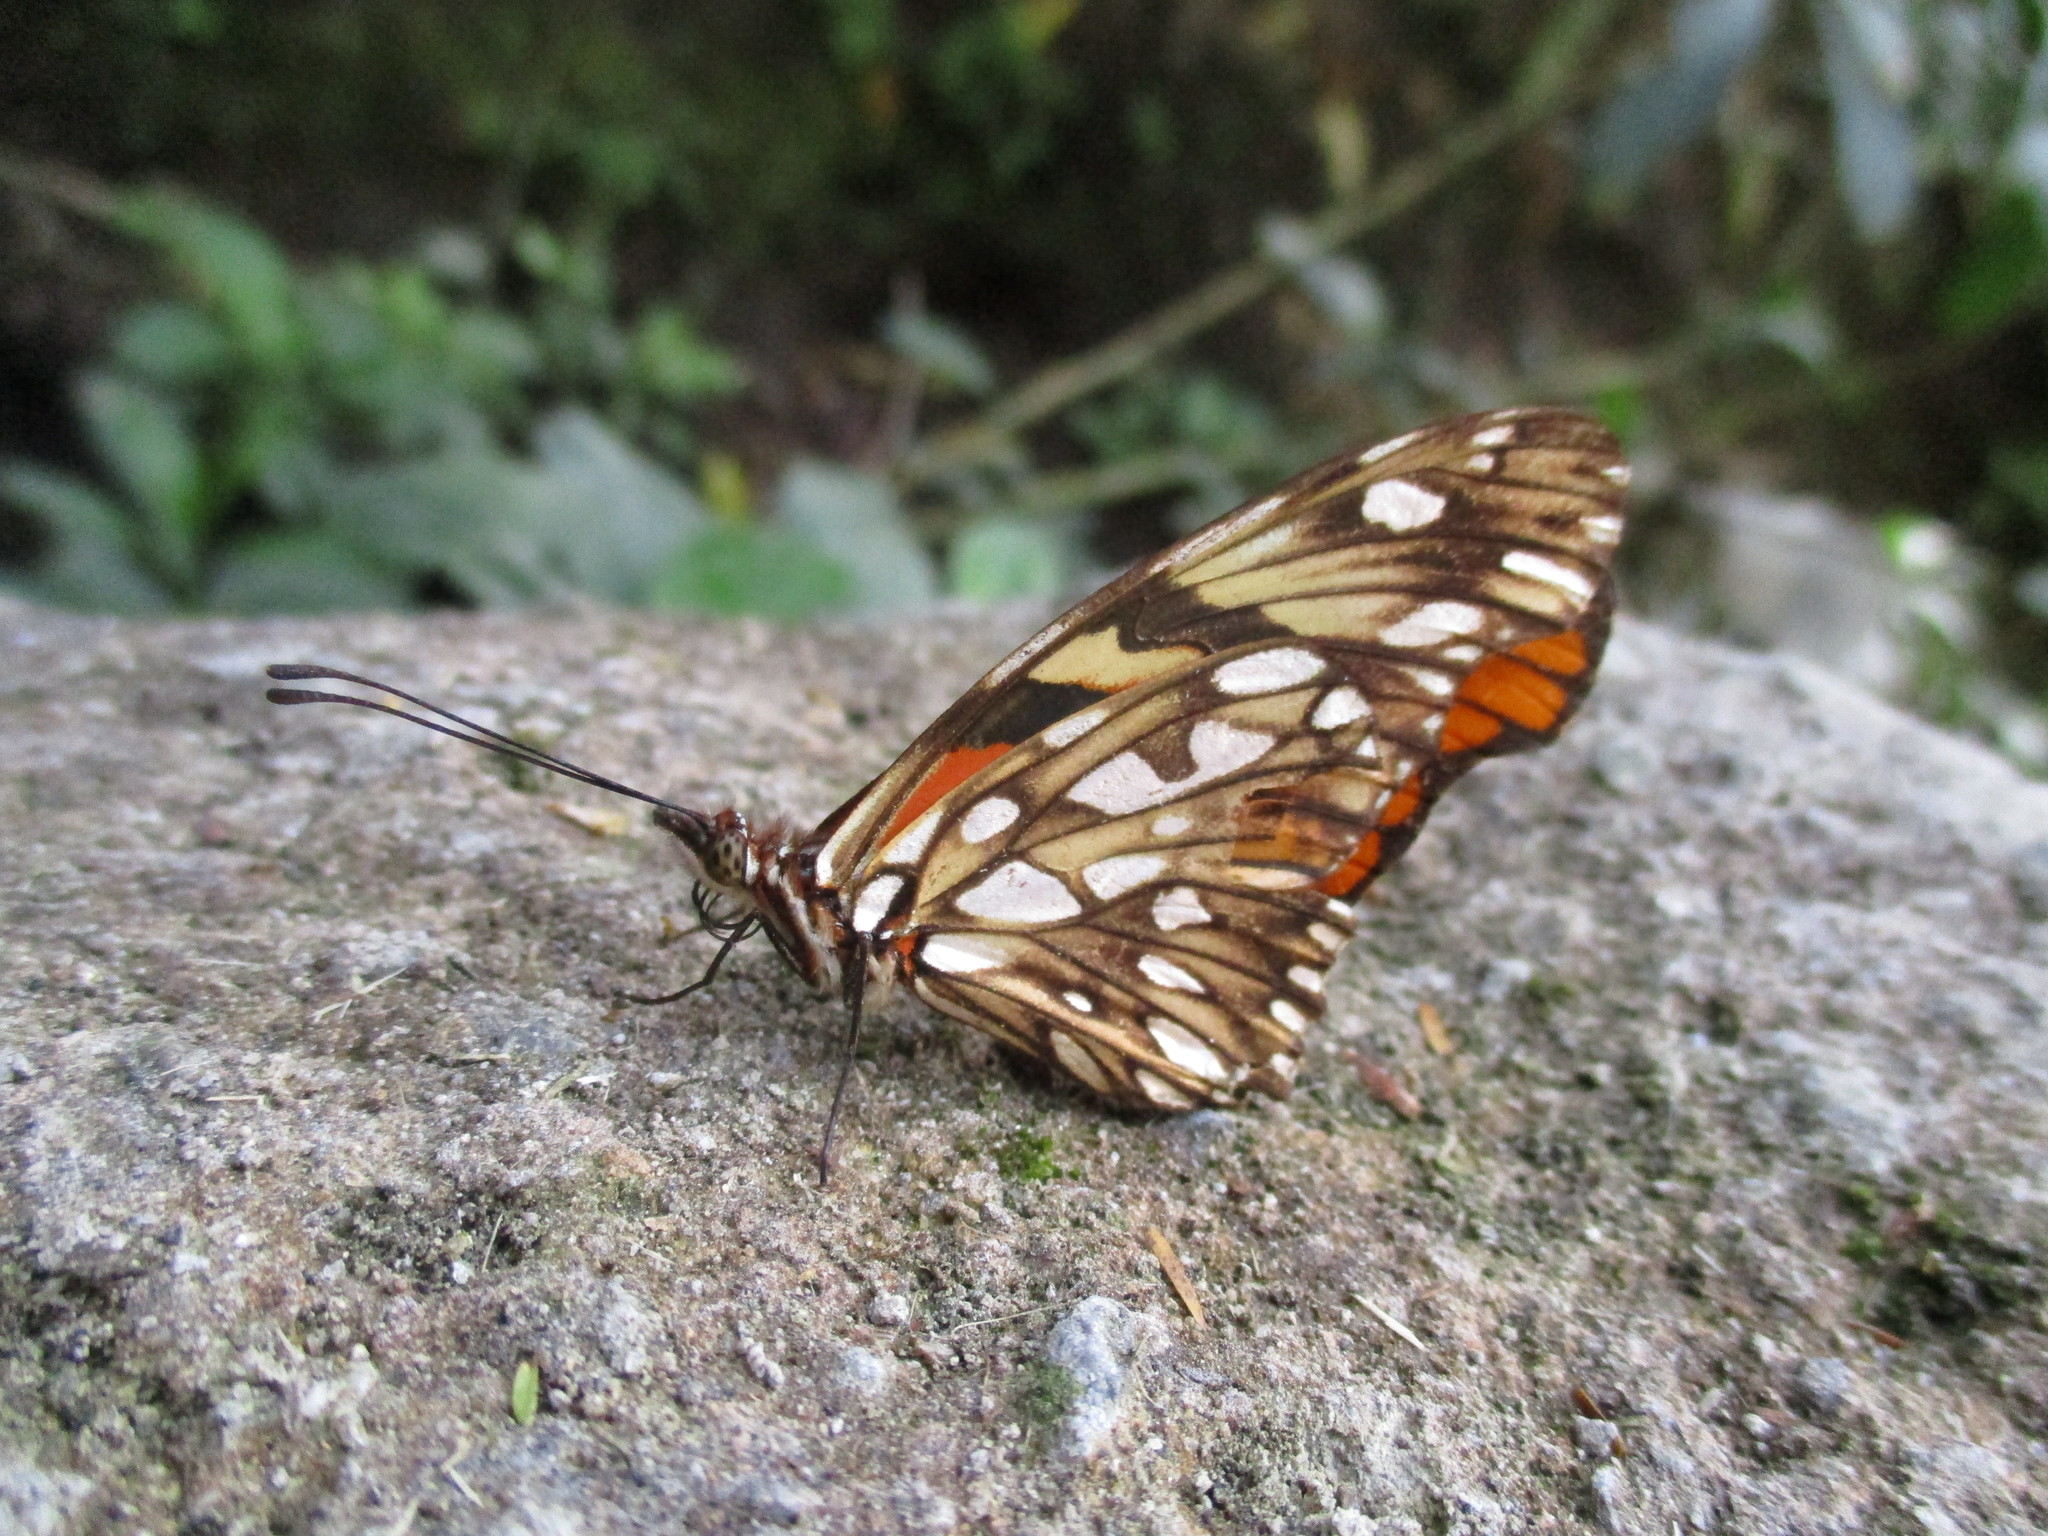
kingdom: Animalia
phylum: Arthropoda
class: Insecta
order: Lepidoptera
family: Nymphalidae
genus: Dione
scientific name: Dione juno
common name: Juno silverspot
